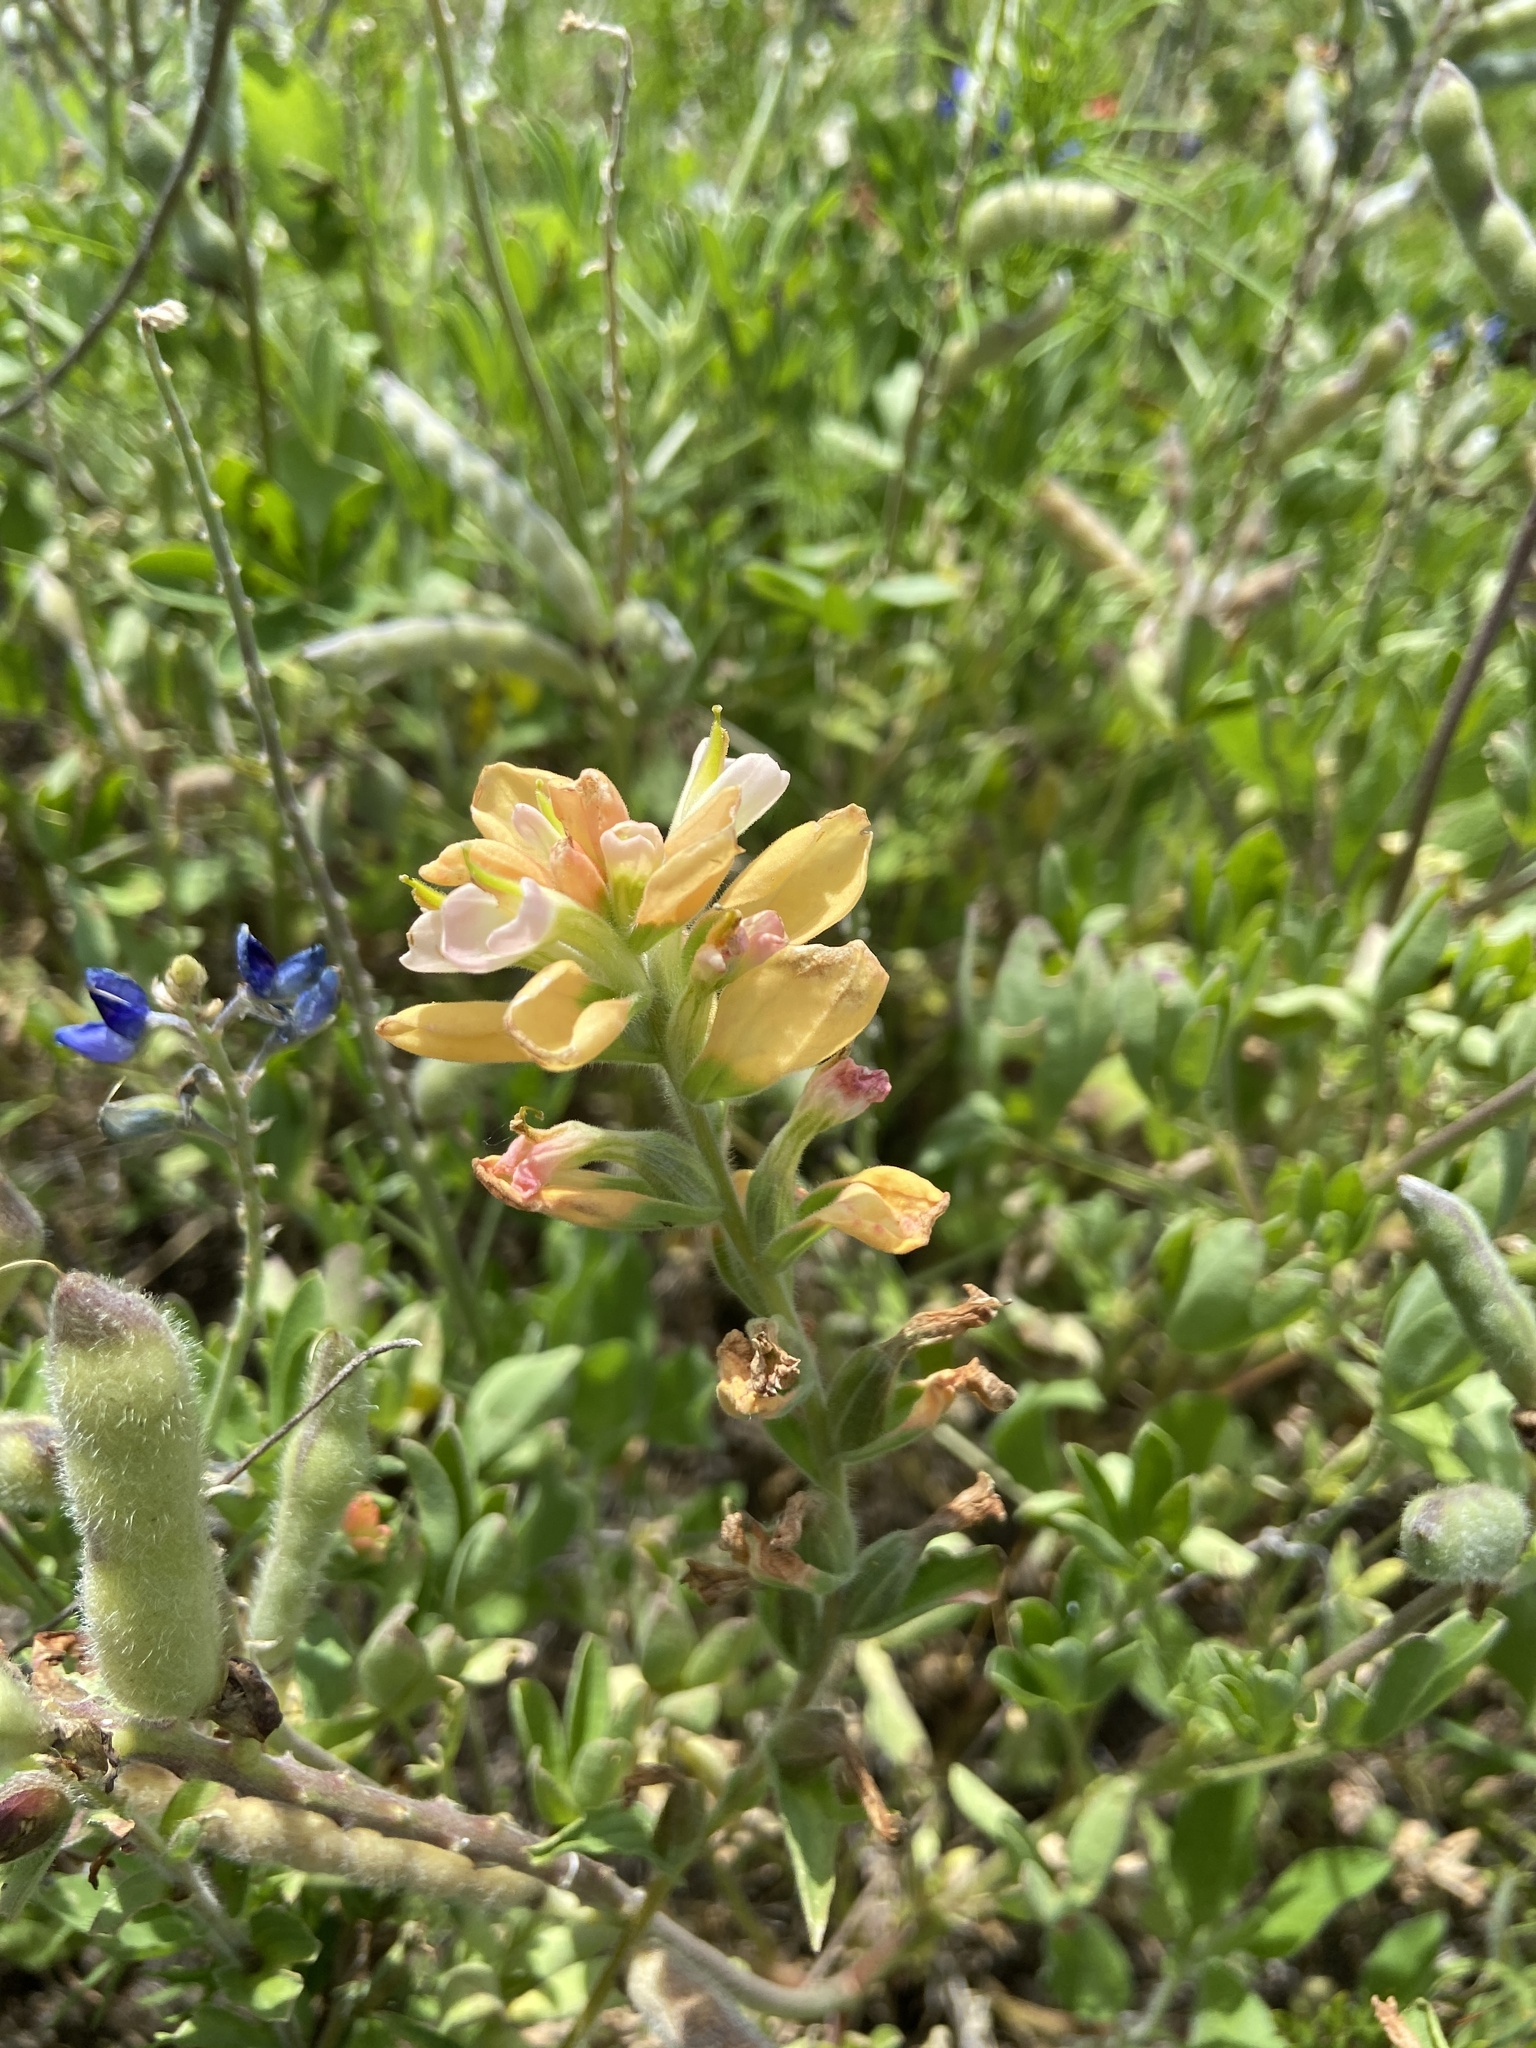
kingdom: Plantae
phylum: Tracheophyta
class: Magnoliopsida
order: Lamiales
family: Orobanchaceae
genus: Castilleja
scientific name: Castilleja indivisa
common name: Texas paintbrush
